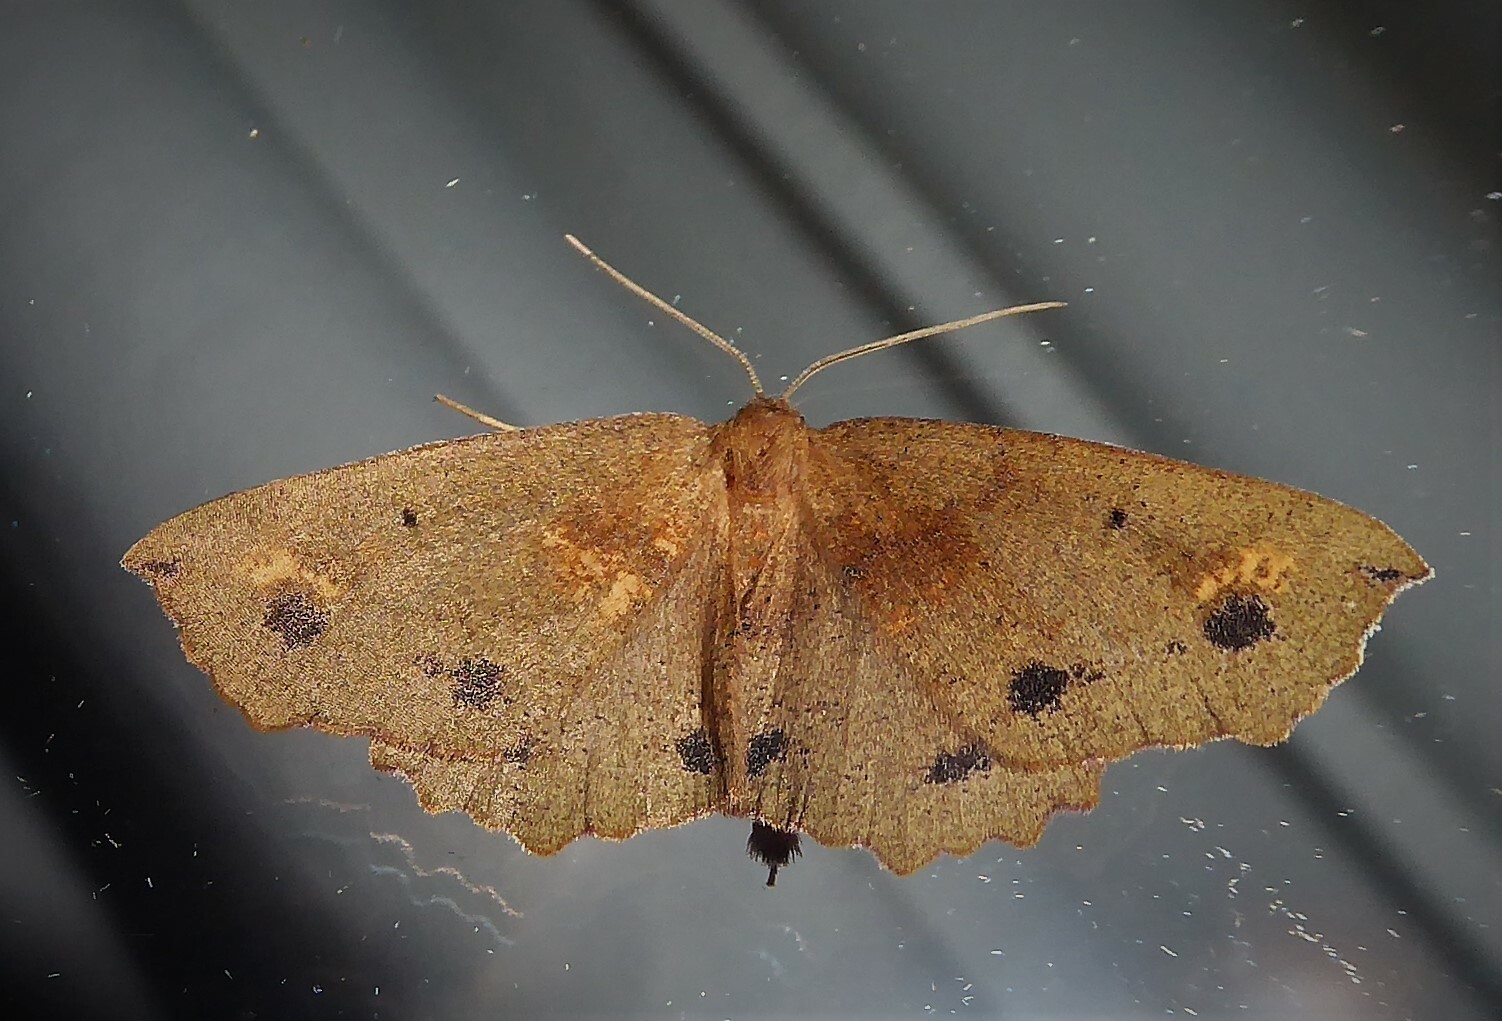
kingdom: Animalia
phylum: Arthropoda
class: Insecta
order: Lepidoptera
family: Geometridae
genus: Xyridacma
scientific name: Xyridacma ustaria
